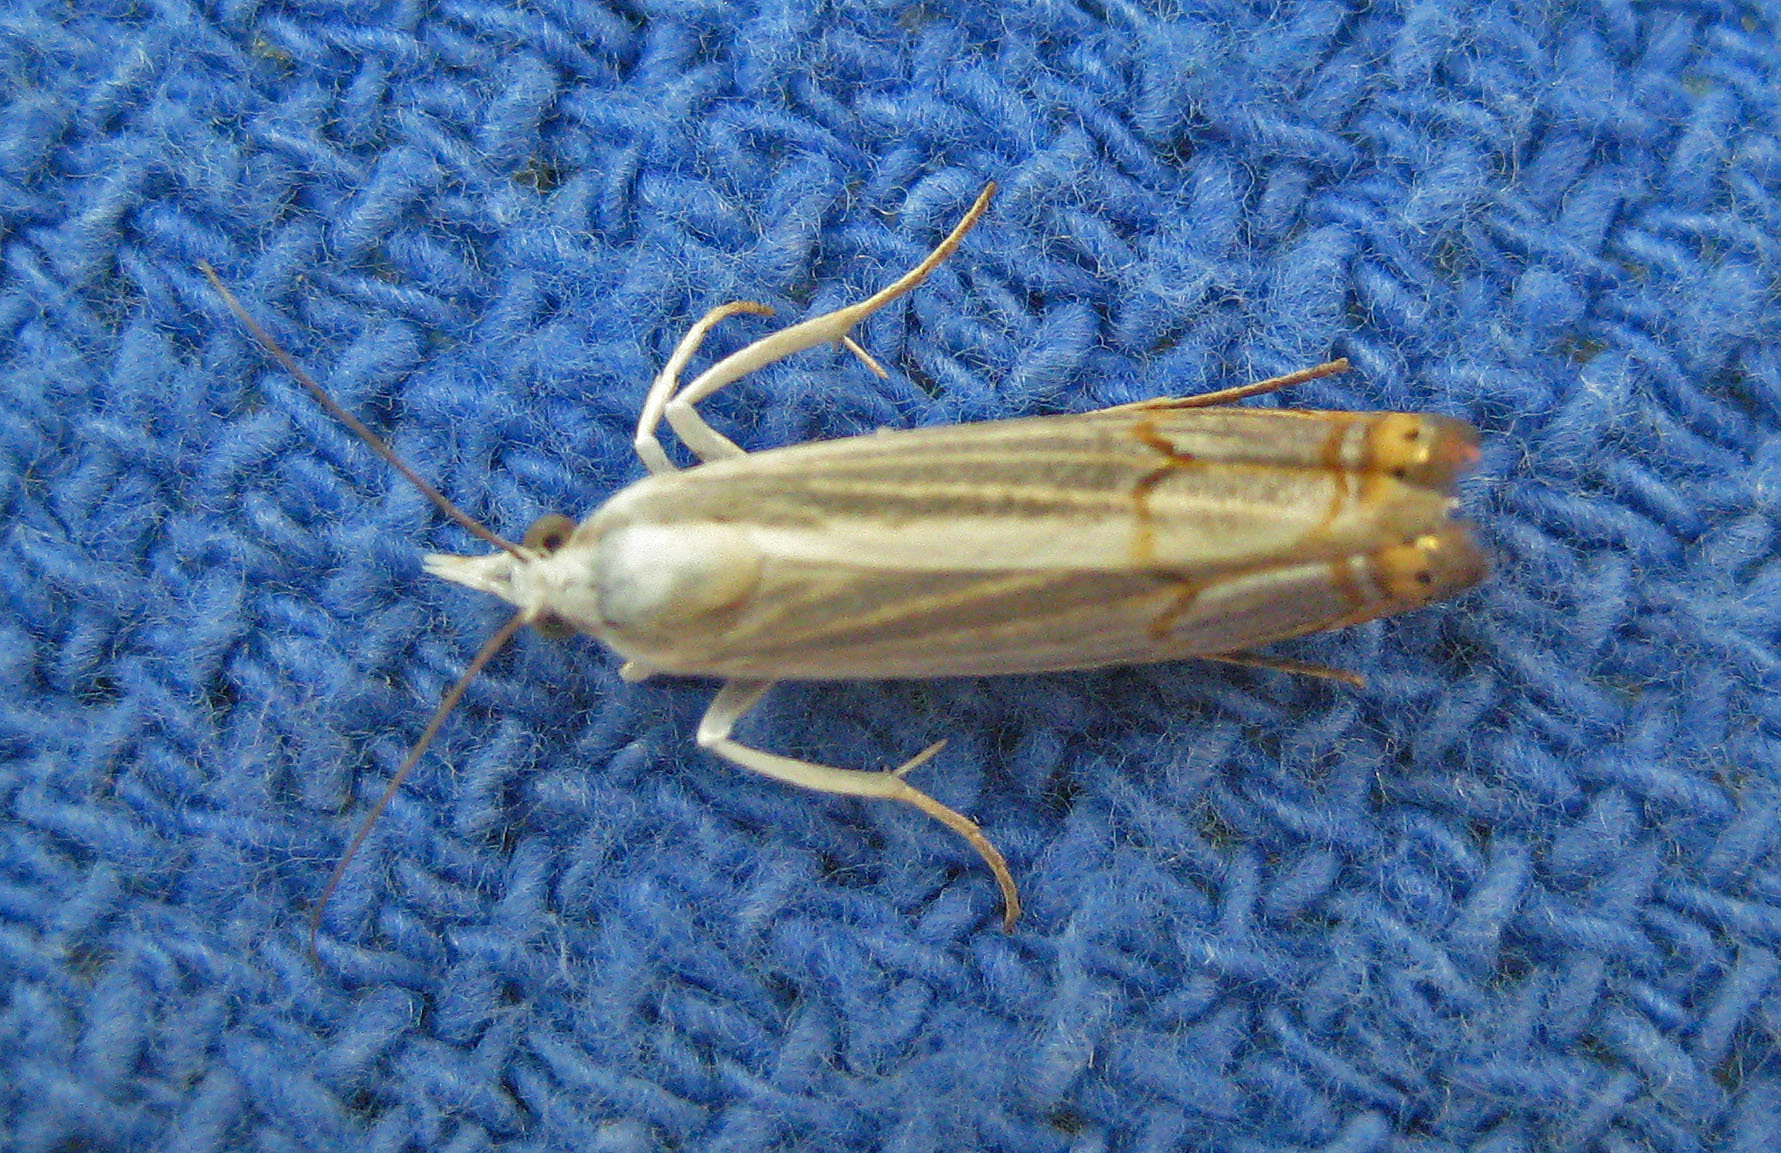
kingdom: Animalia
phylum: Arthropoda
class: Insecta
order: Lepidoptera
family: Crambidae
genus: Parapediasia
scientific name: Parapediasia decorellus
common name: Graceful grass-veneer
